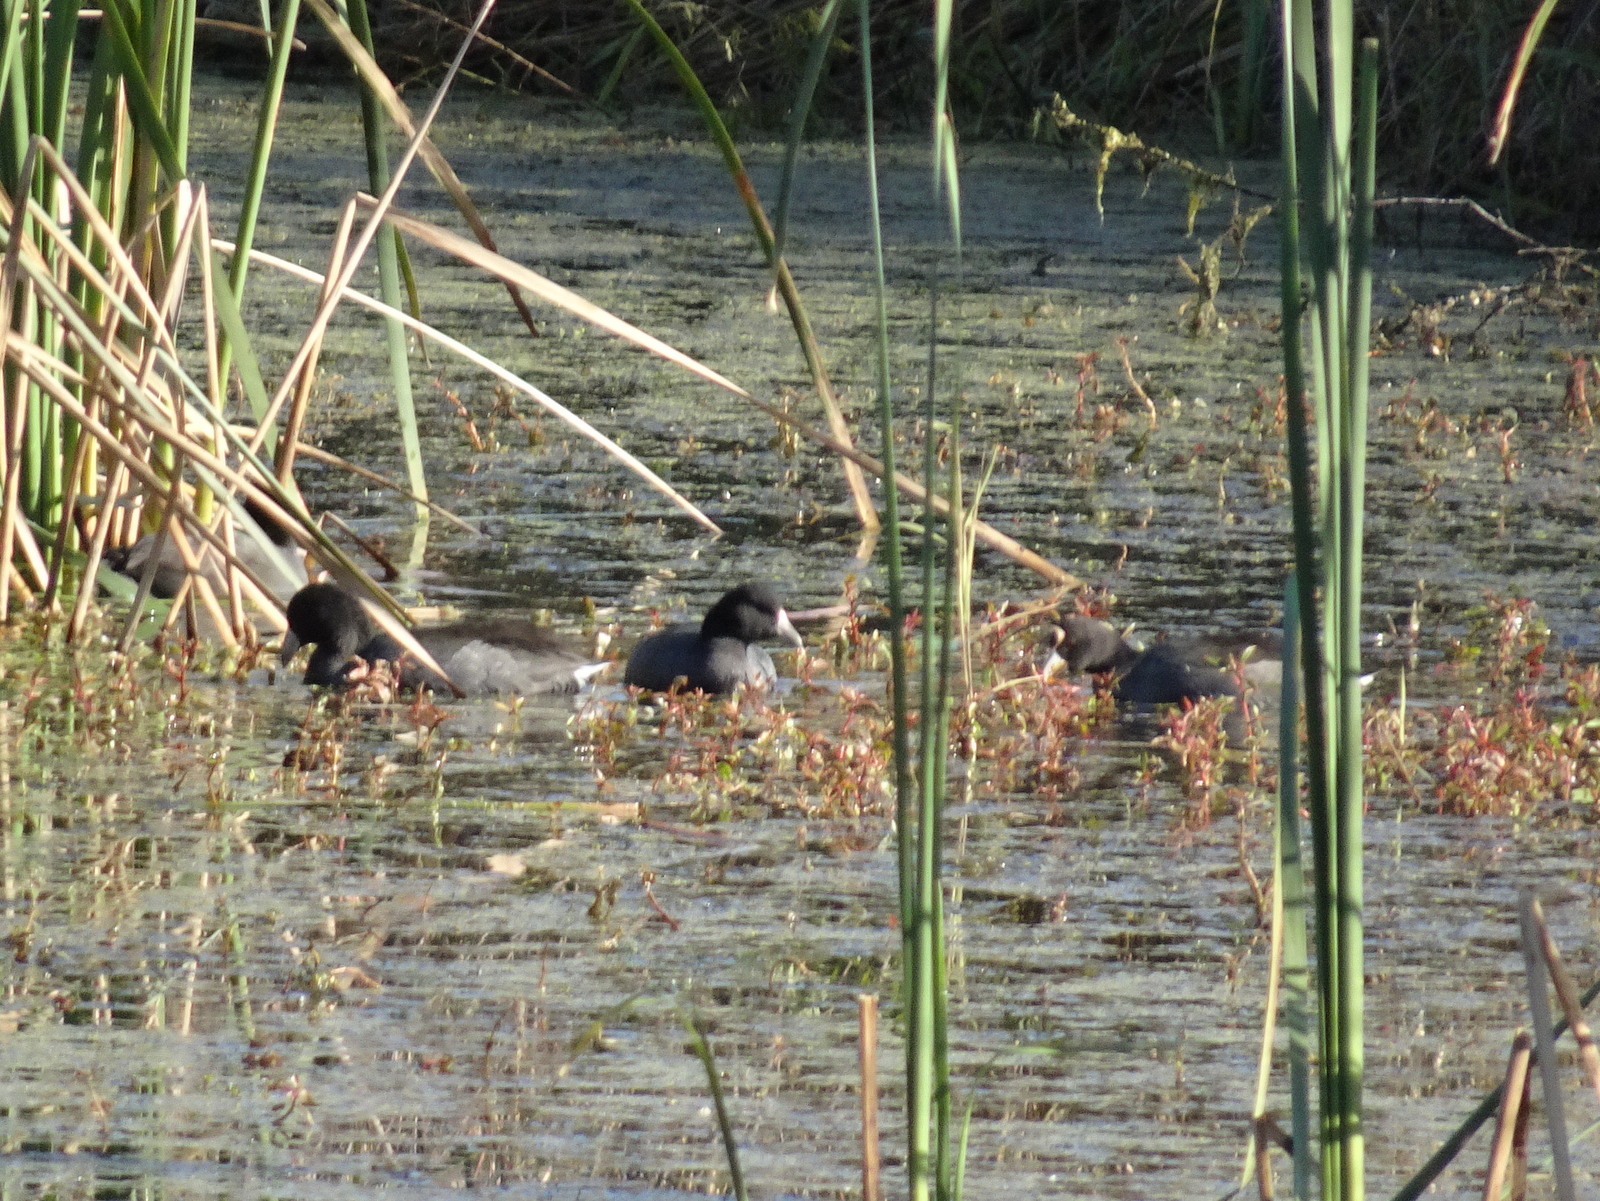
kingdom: Animalia
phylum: Chordata
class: Aves
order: Gruiformes
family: Rallidae
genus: Fulica
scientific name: Fulica americana
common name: American coot
